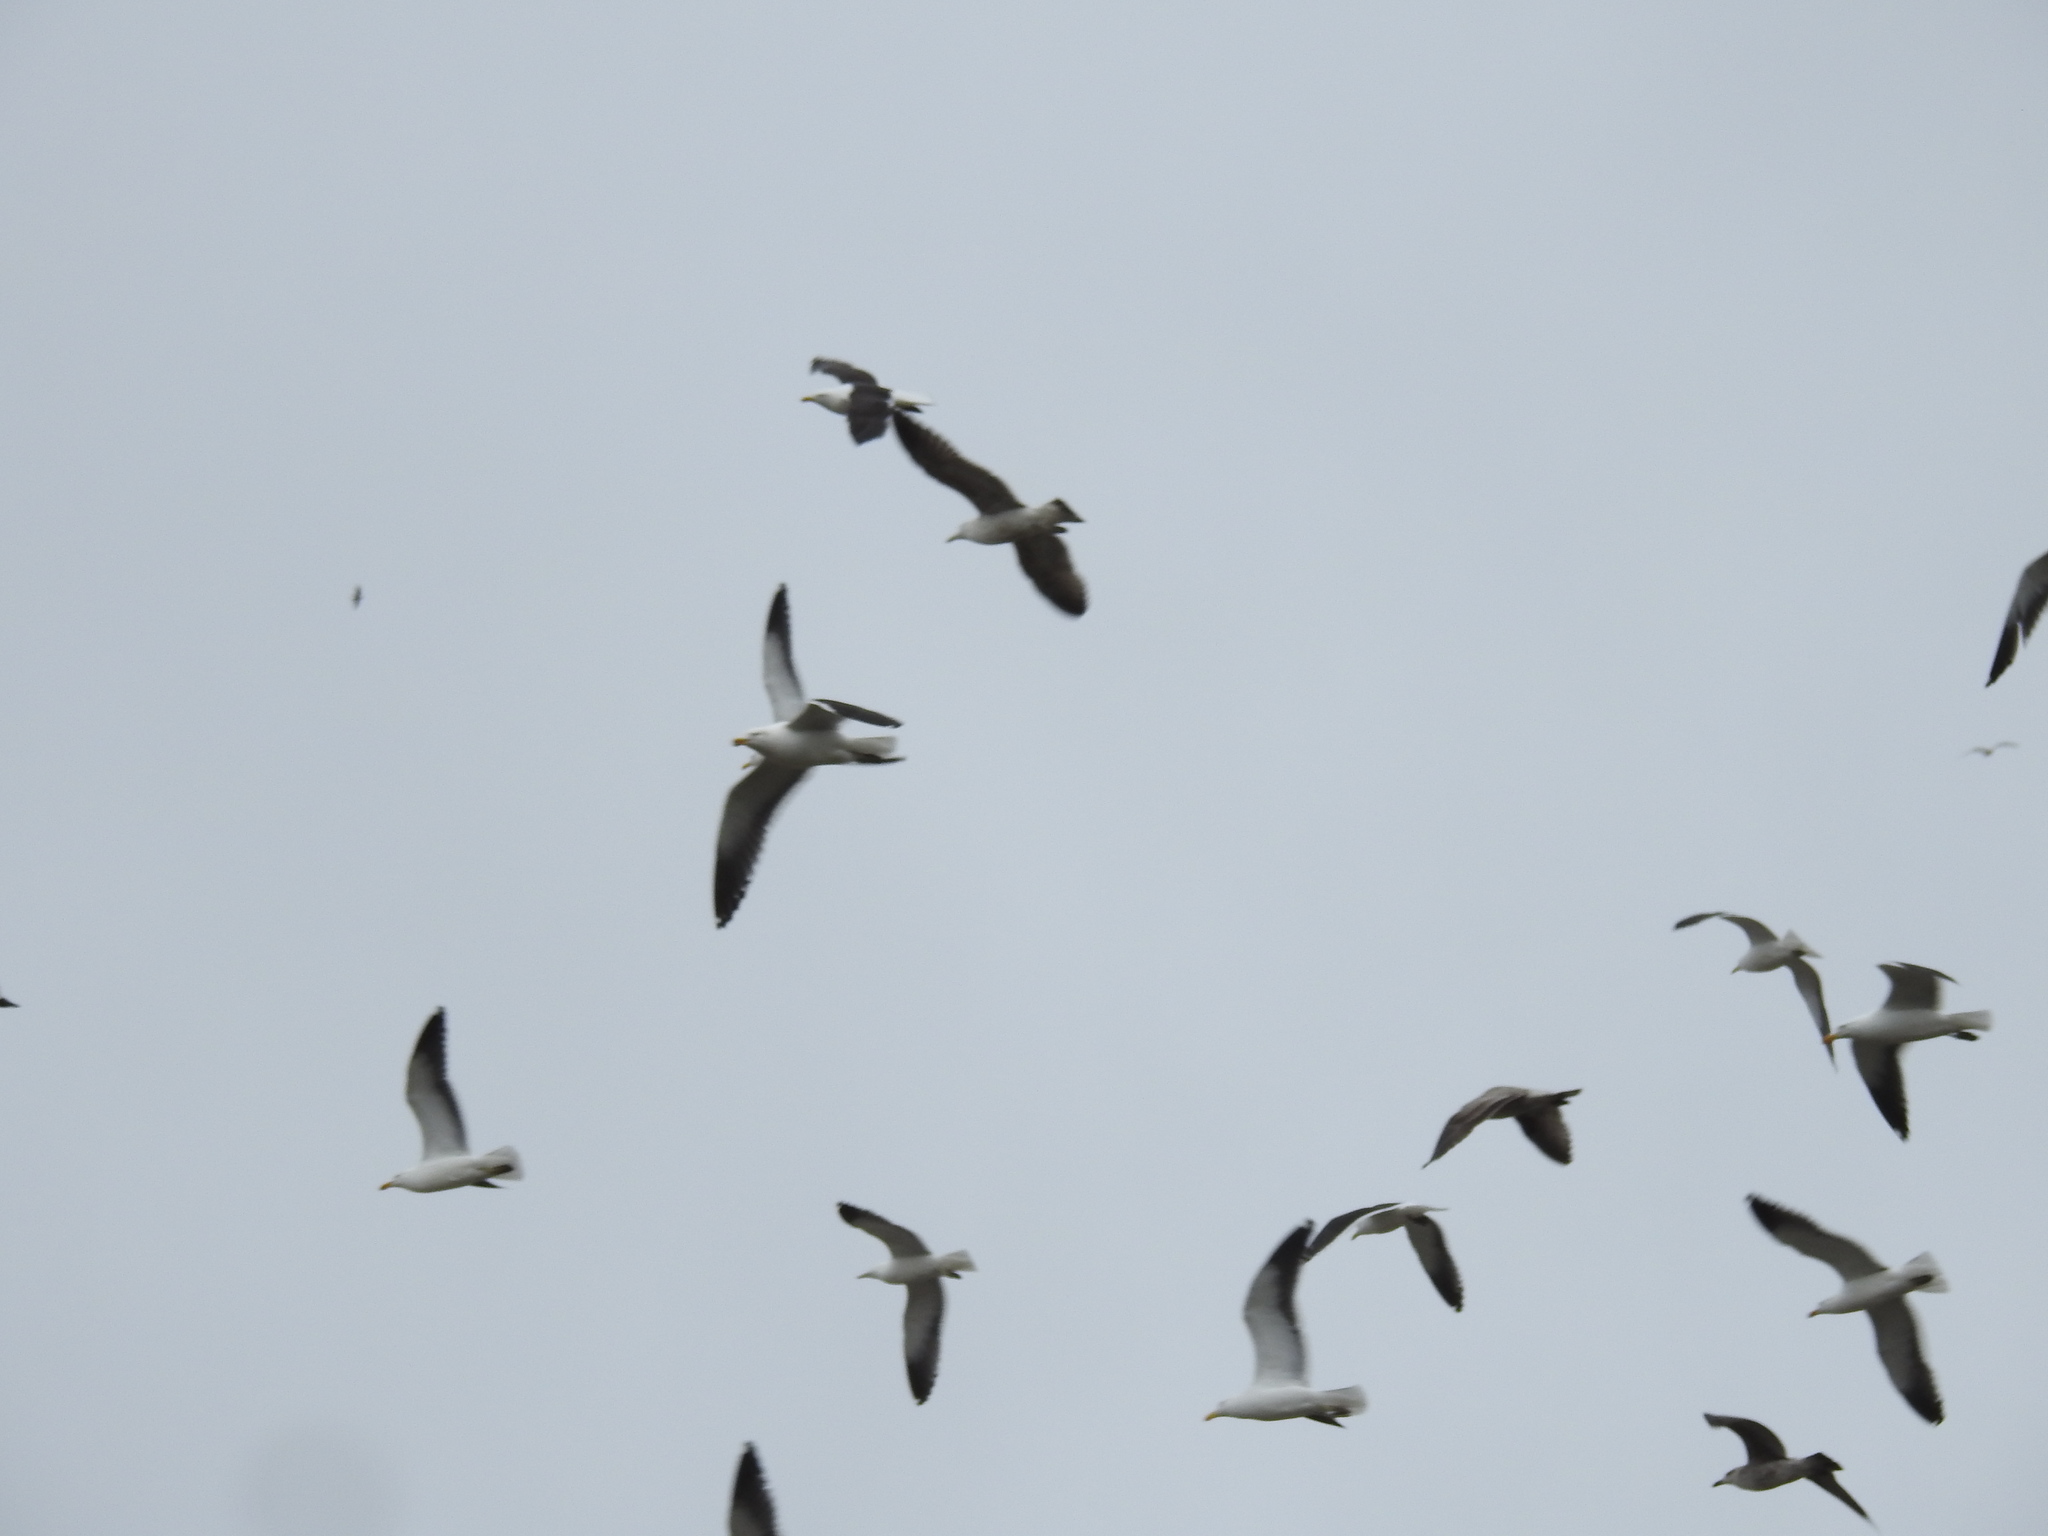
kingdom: Animalia
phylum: Chordata
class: Aves
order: Charadriiformes
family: Laridae
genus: Larus
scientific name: Larus dominicanus
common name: Kelp gull
